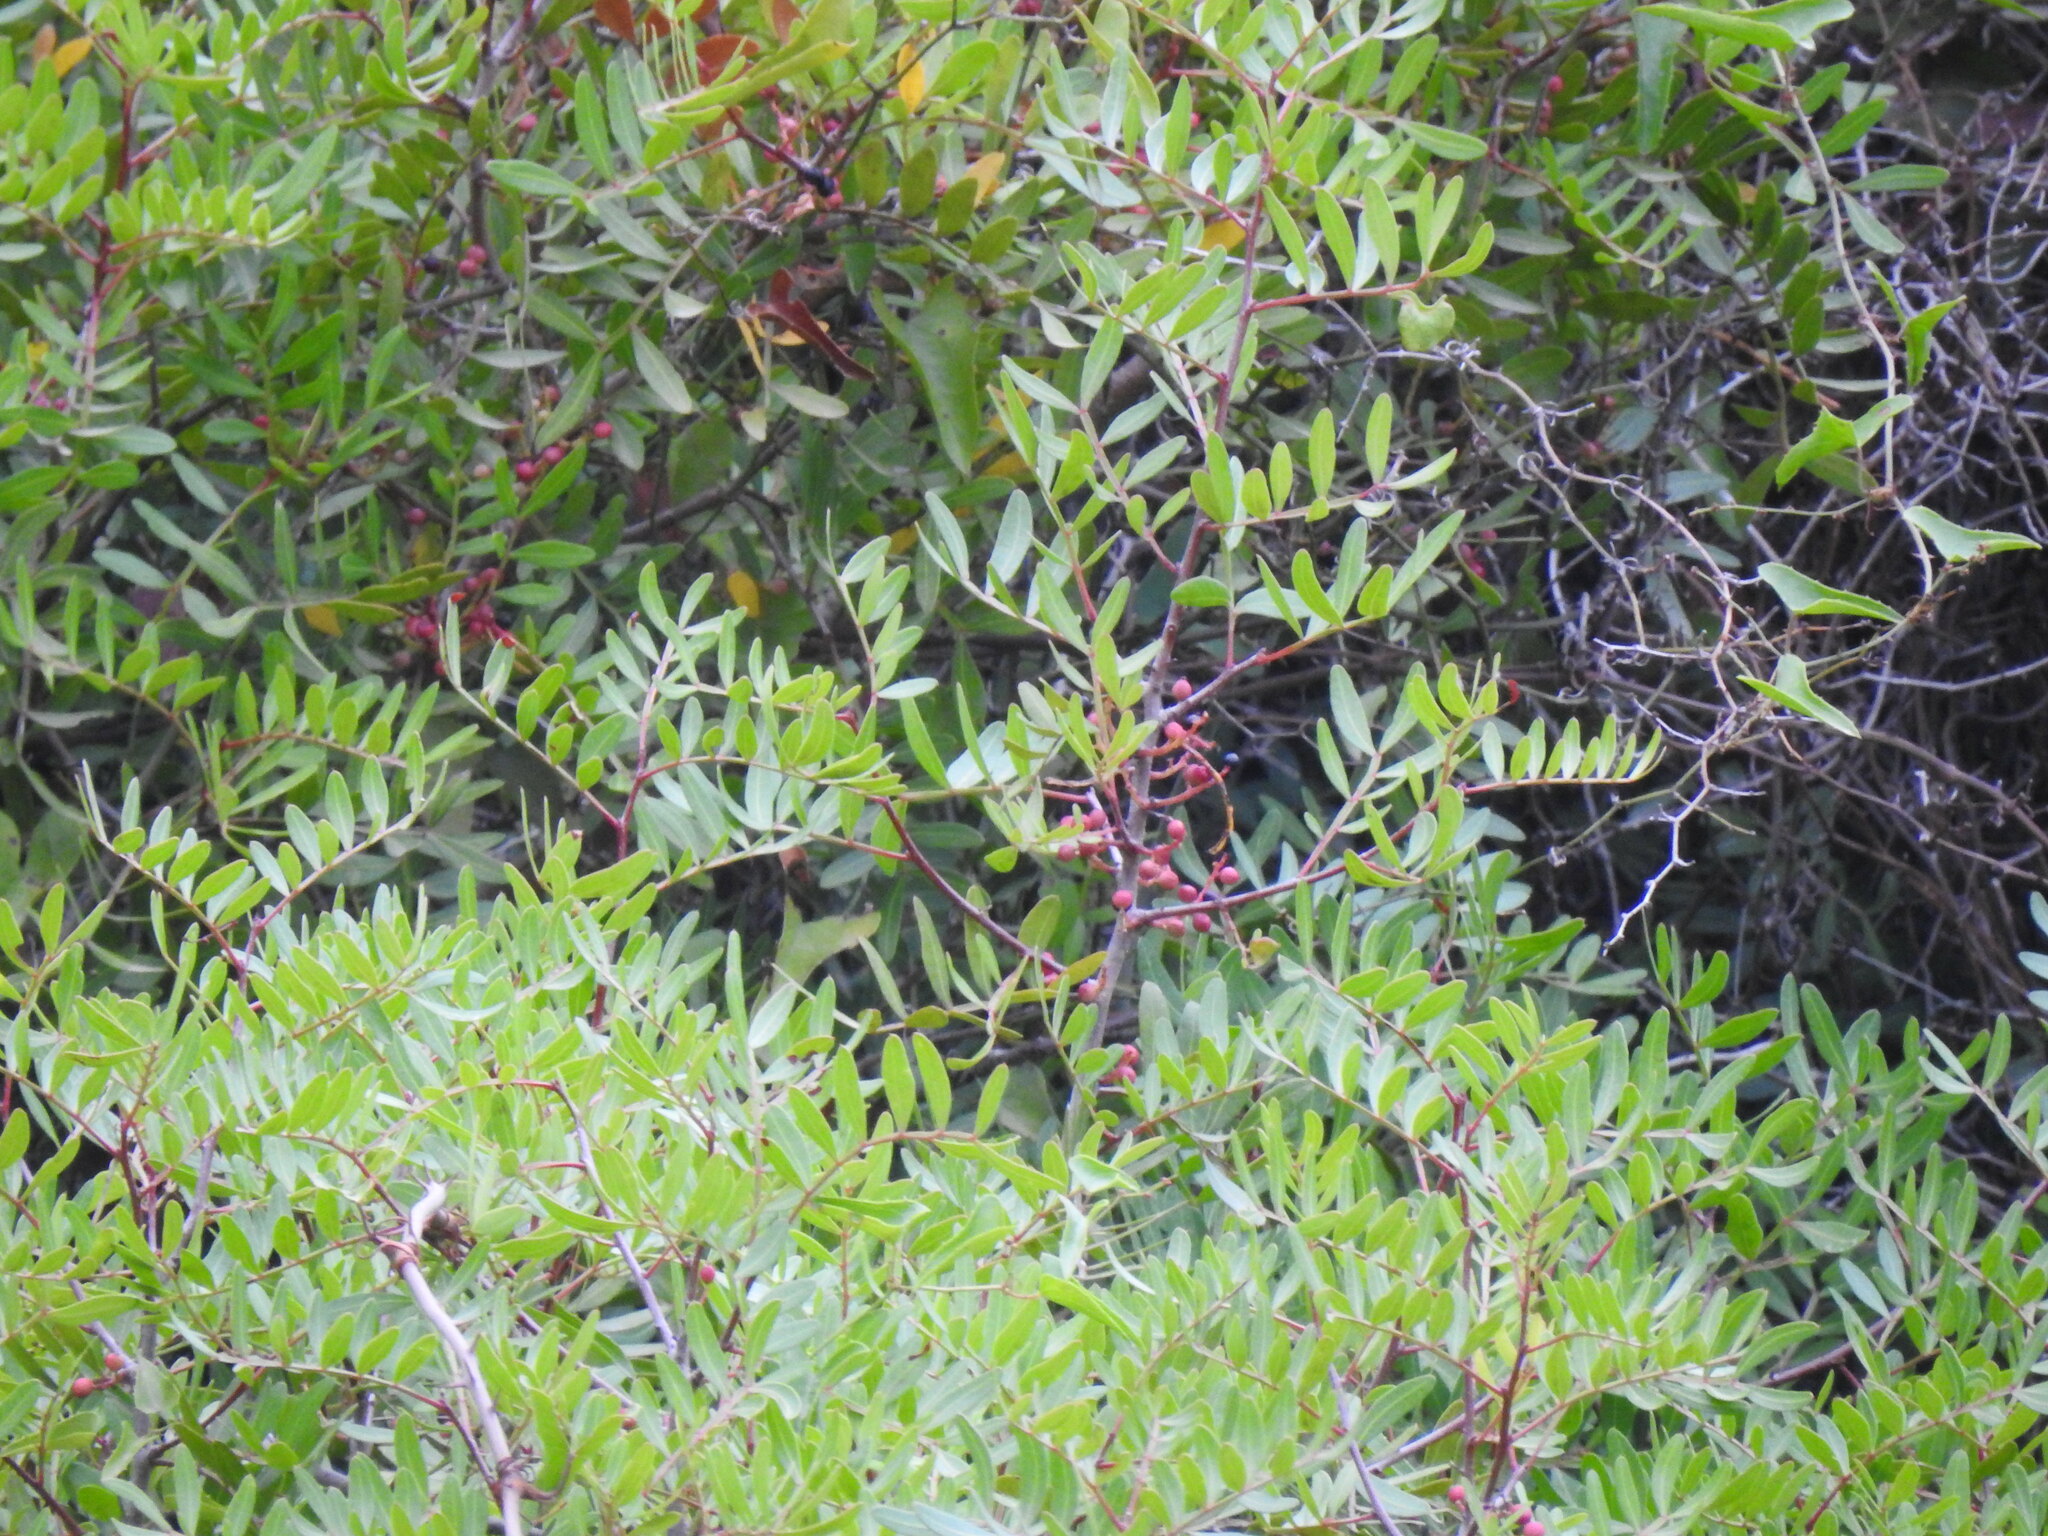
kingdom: Plantae
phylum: Tracheophyta
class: Magnoliopsida
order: Sapindales
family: Anacardiaceae
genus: Pistacia
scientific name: Pistacia lentiscus
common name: Lentisk
